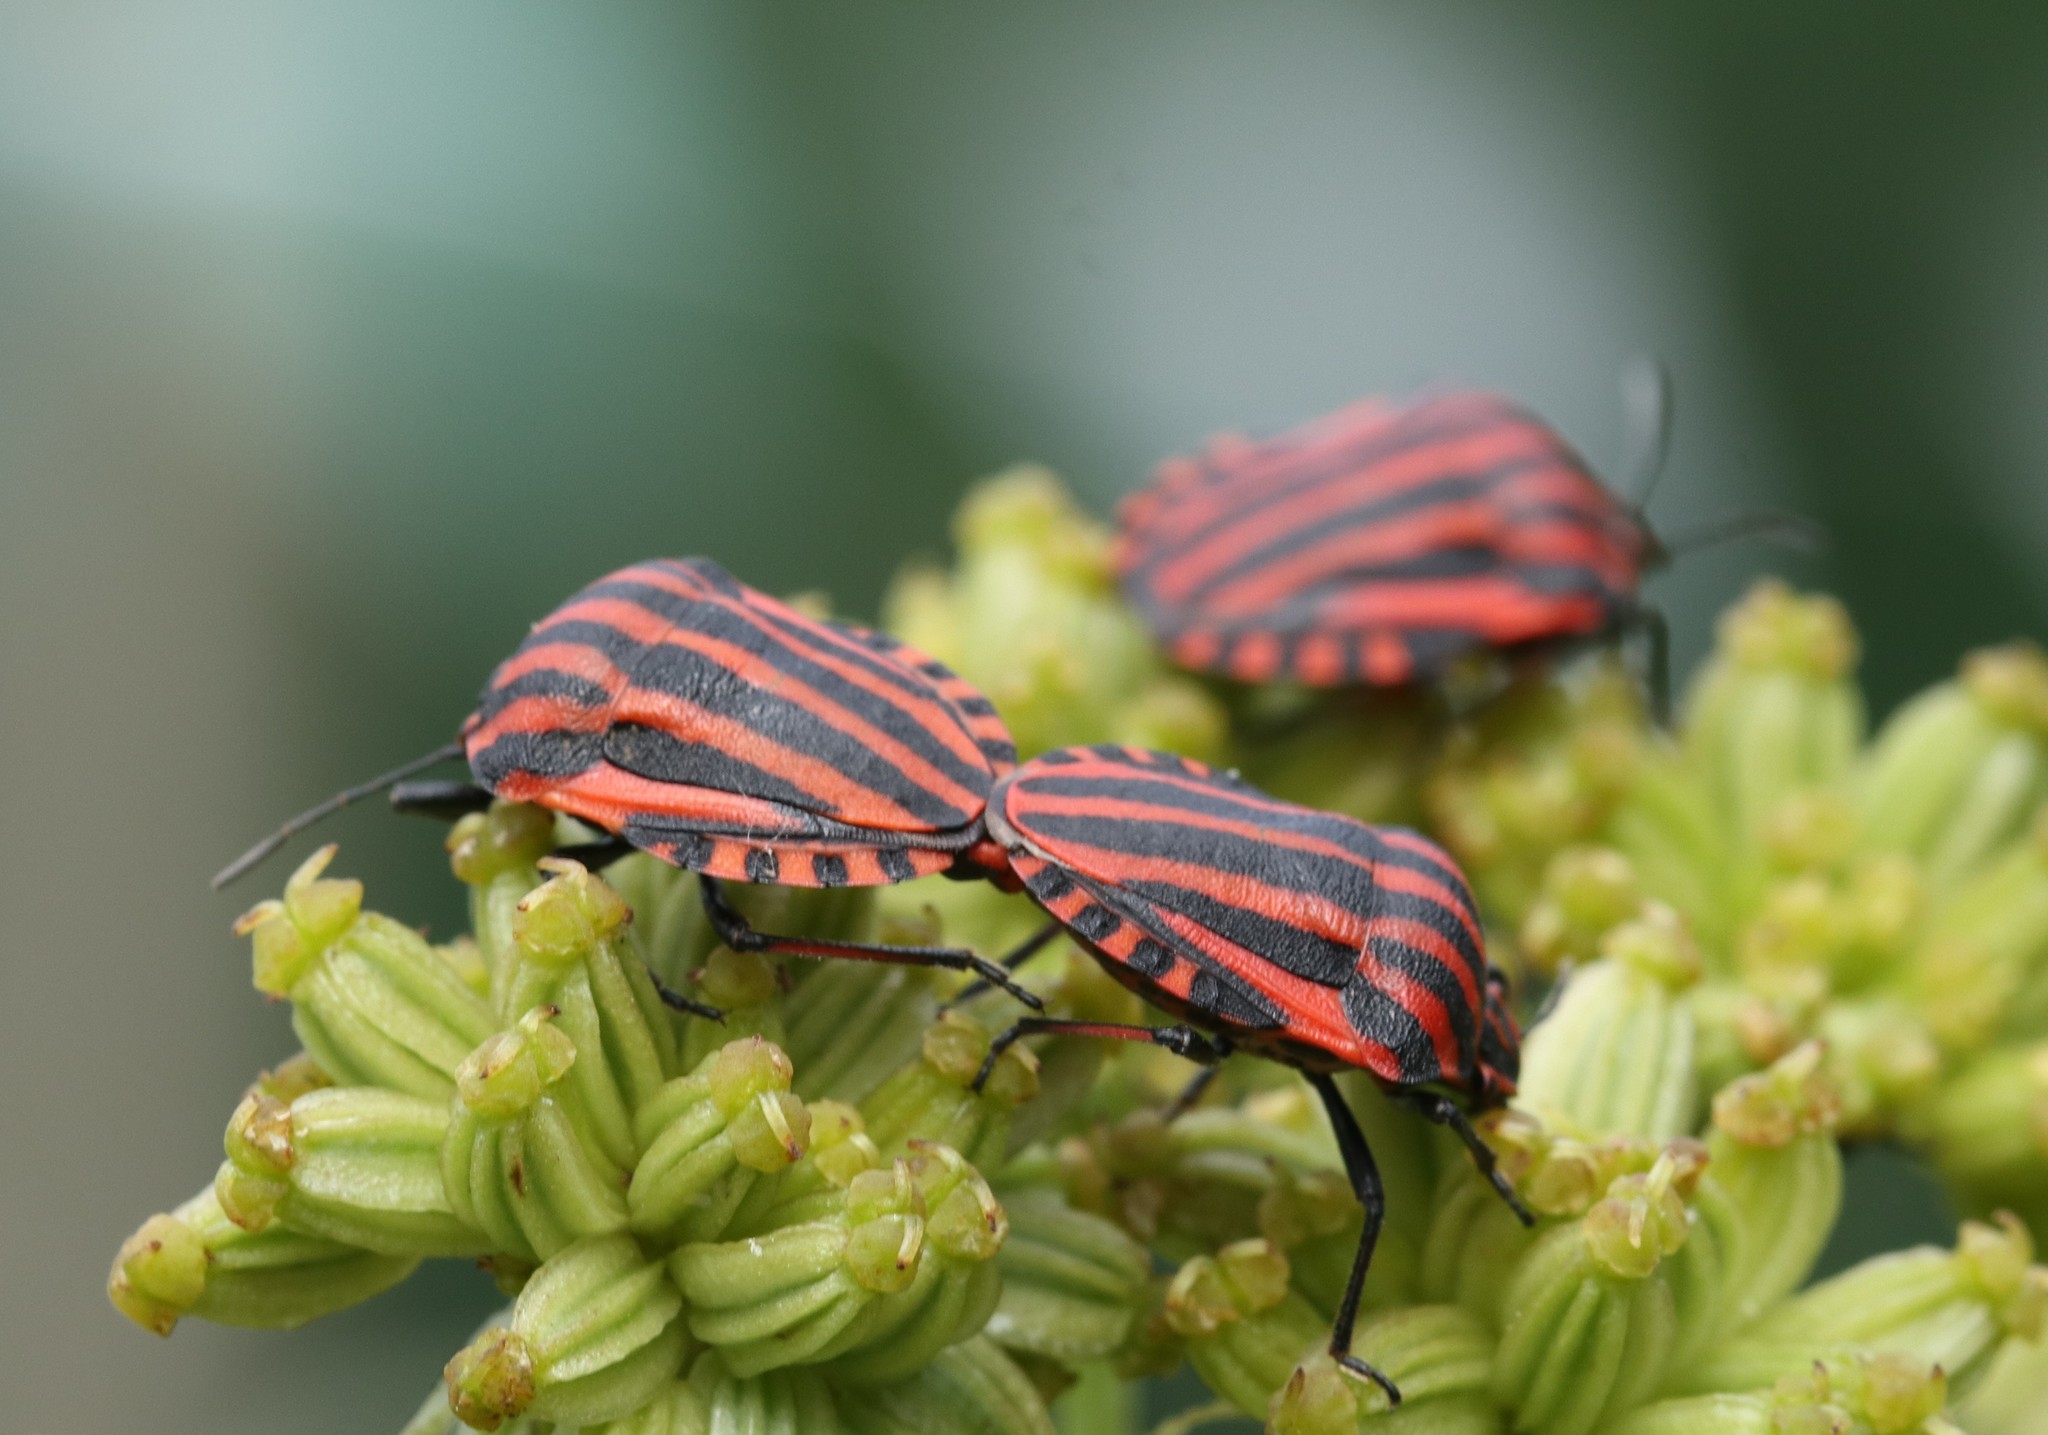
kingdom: Animalia
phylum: Arthropoda
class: Insecta
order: Hemiptera
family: Pentatomidae
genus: Graphosoma
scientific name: Graphosoma italicum
